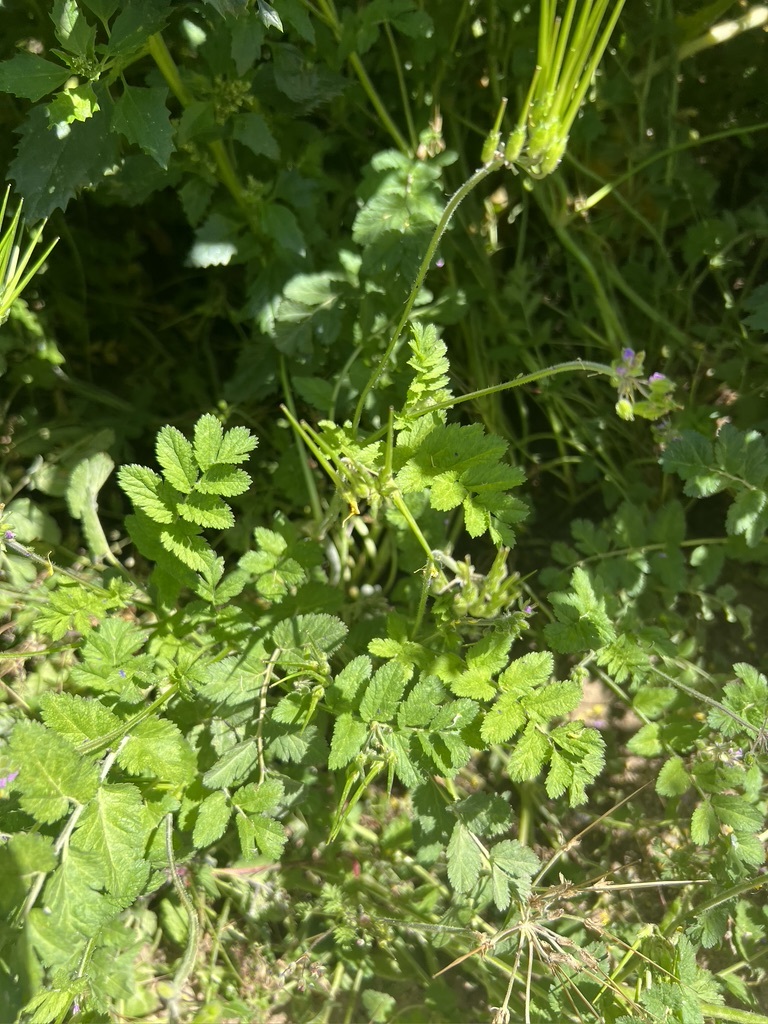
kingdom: Plantae
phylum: Tracheophyta
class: Magnoliopsida
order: Geraniales
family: Geraniaceae
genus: Erodium
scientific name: Erodium moschatum
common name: Musk stork's-bill
